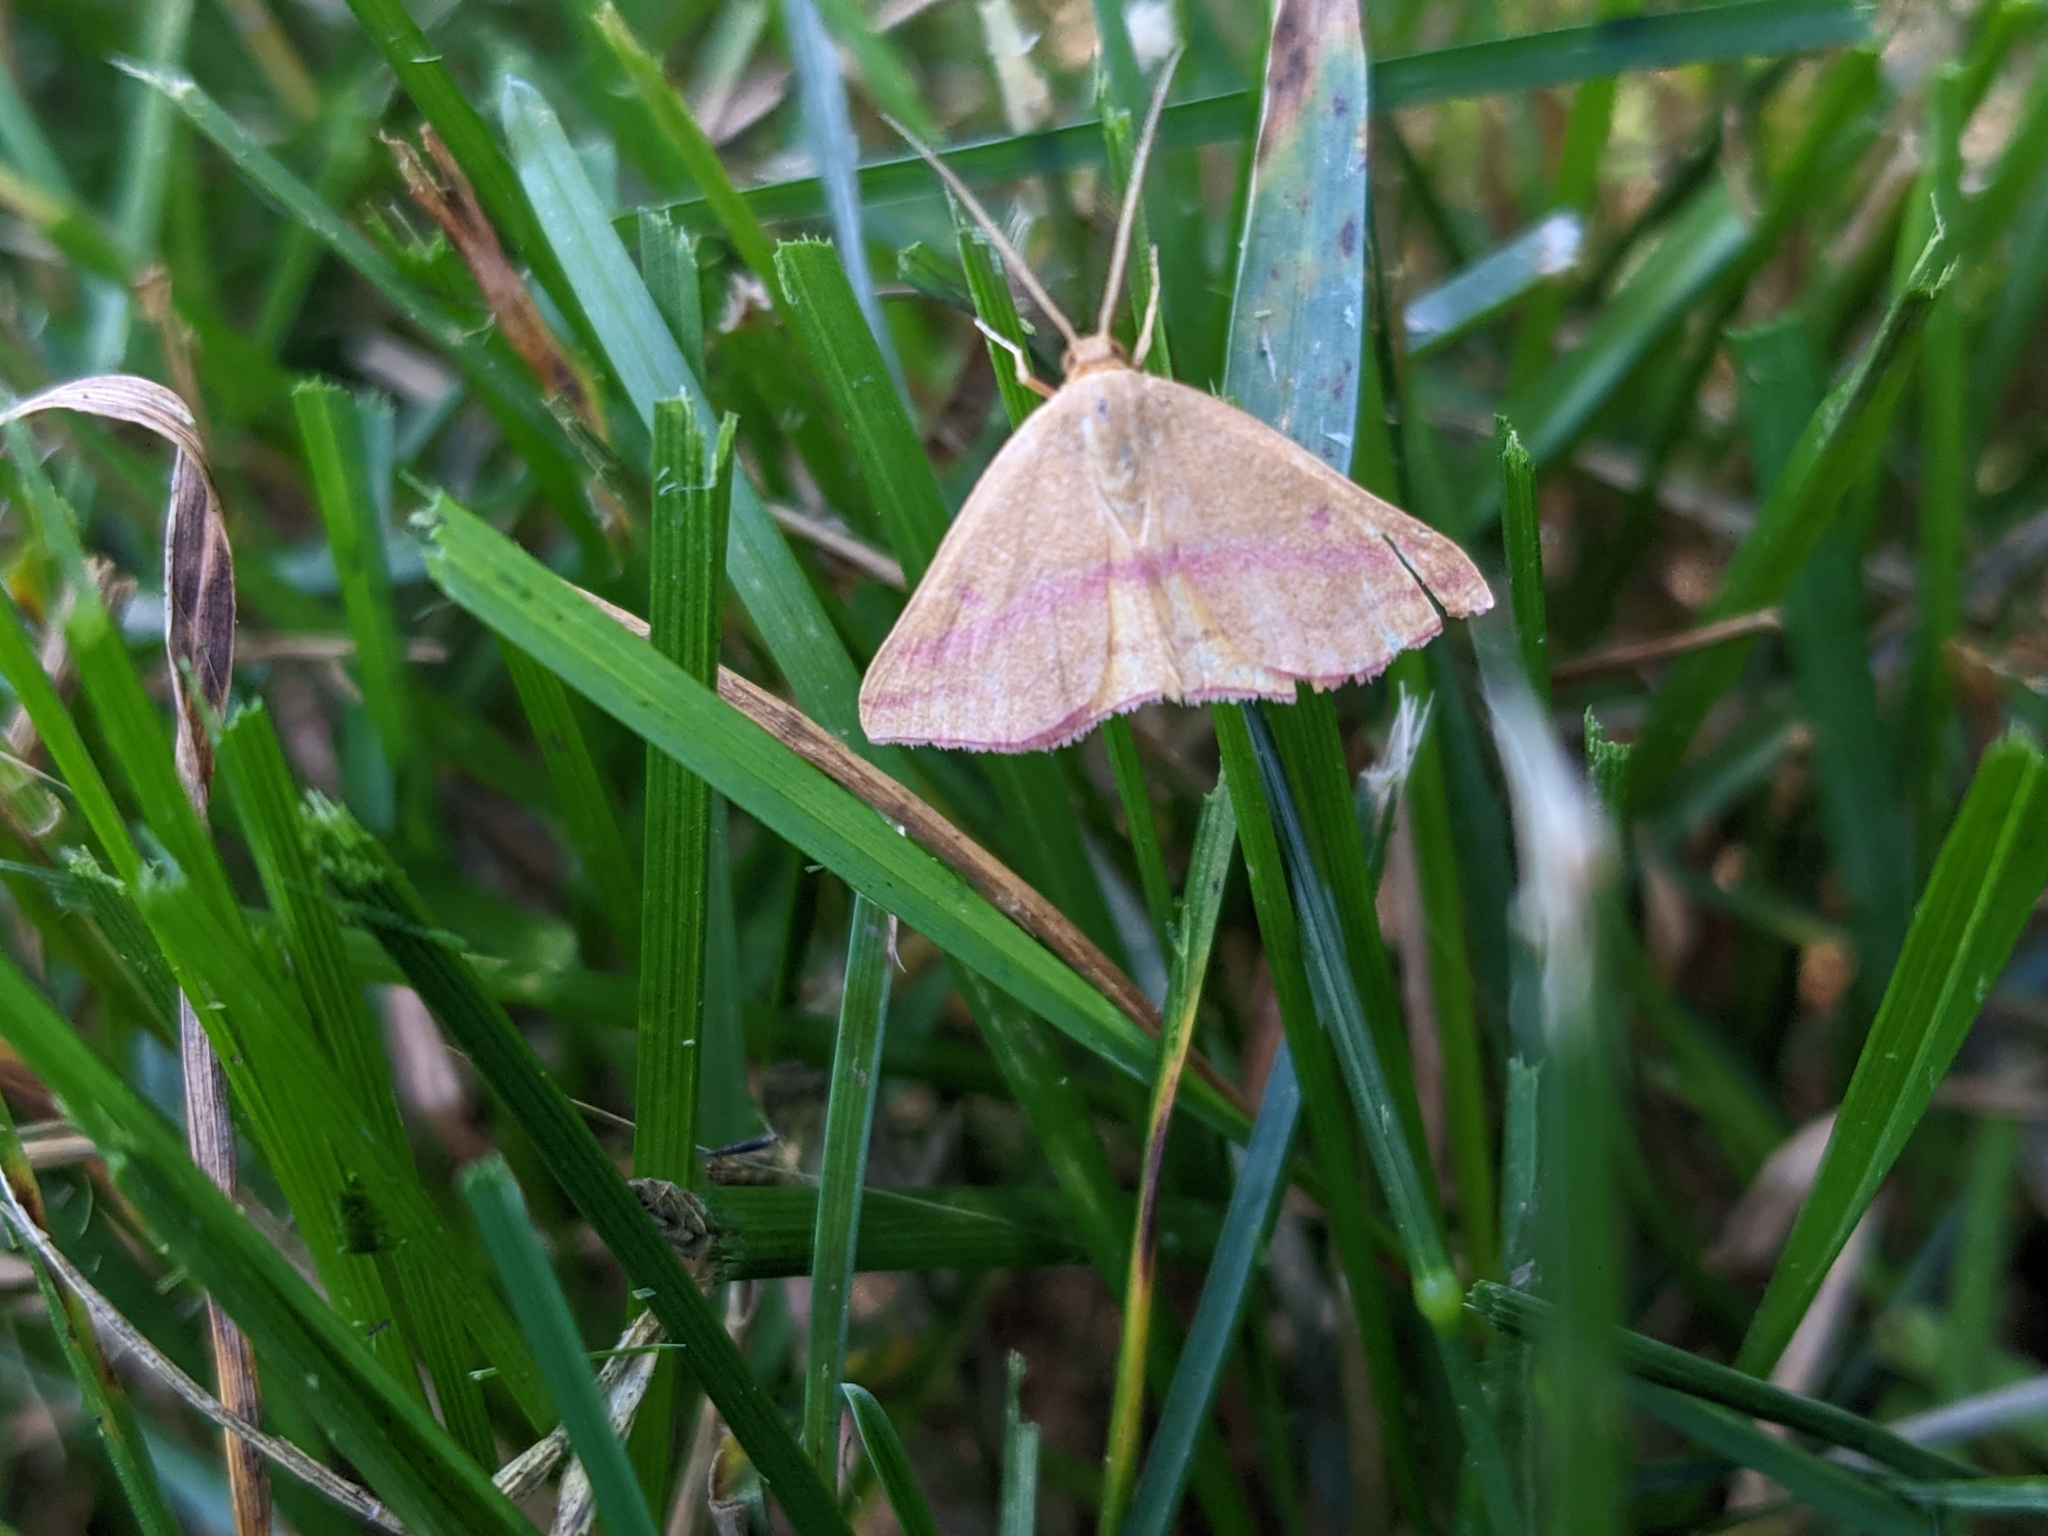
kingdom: Animalia
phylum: Arthropoda
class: Insecta
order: Lepidoptera
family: Geometridae
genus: Haematopis
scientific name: Haematopis grataria
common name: Chickweed geometer
